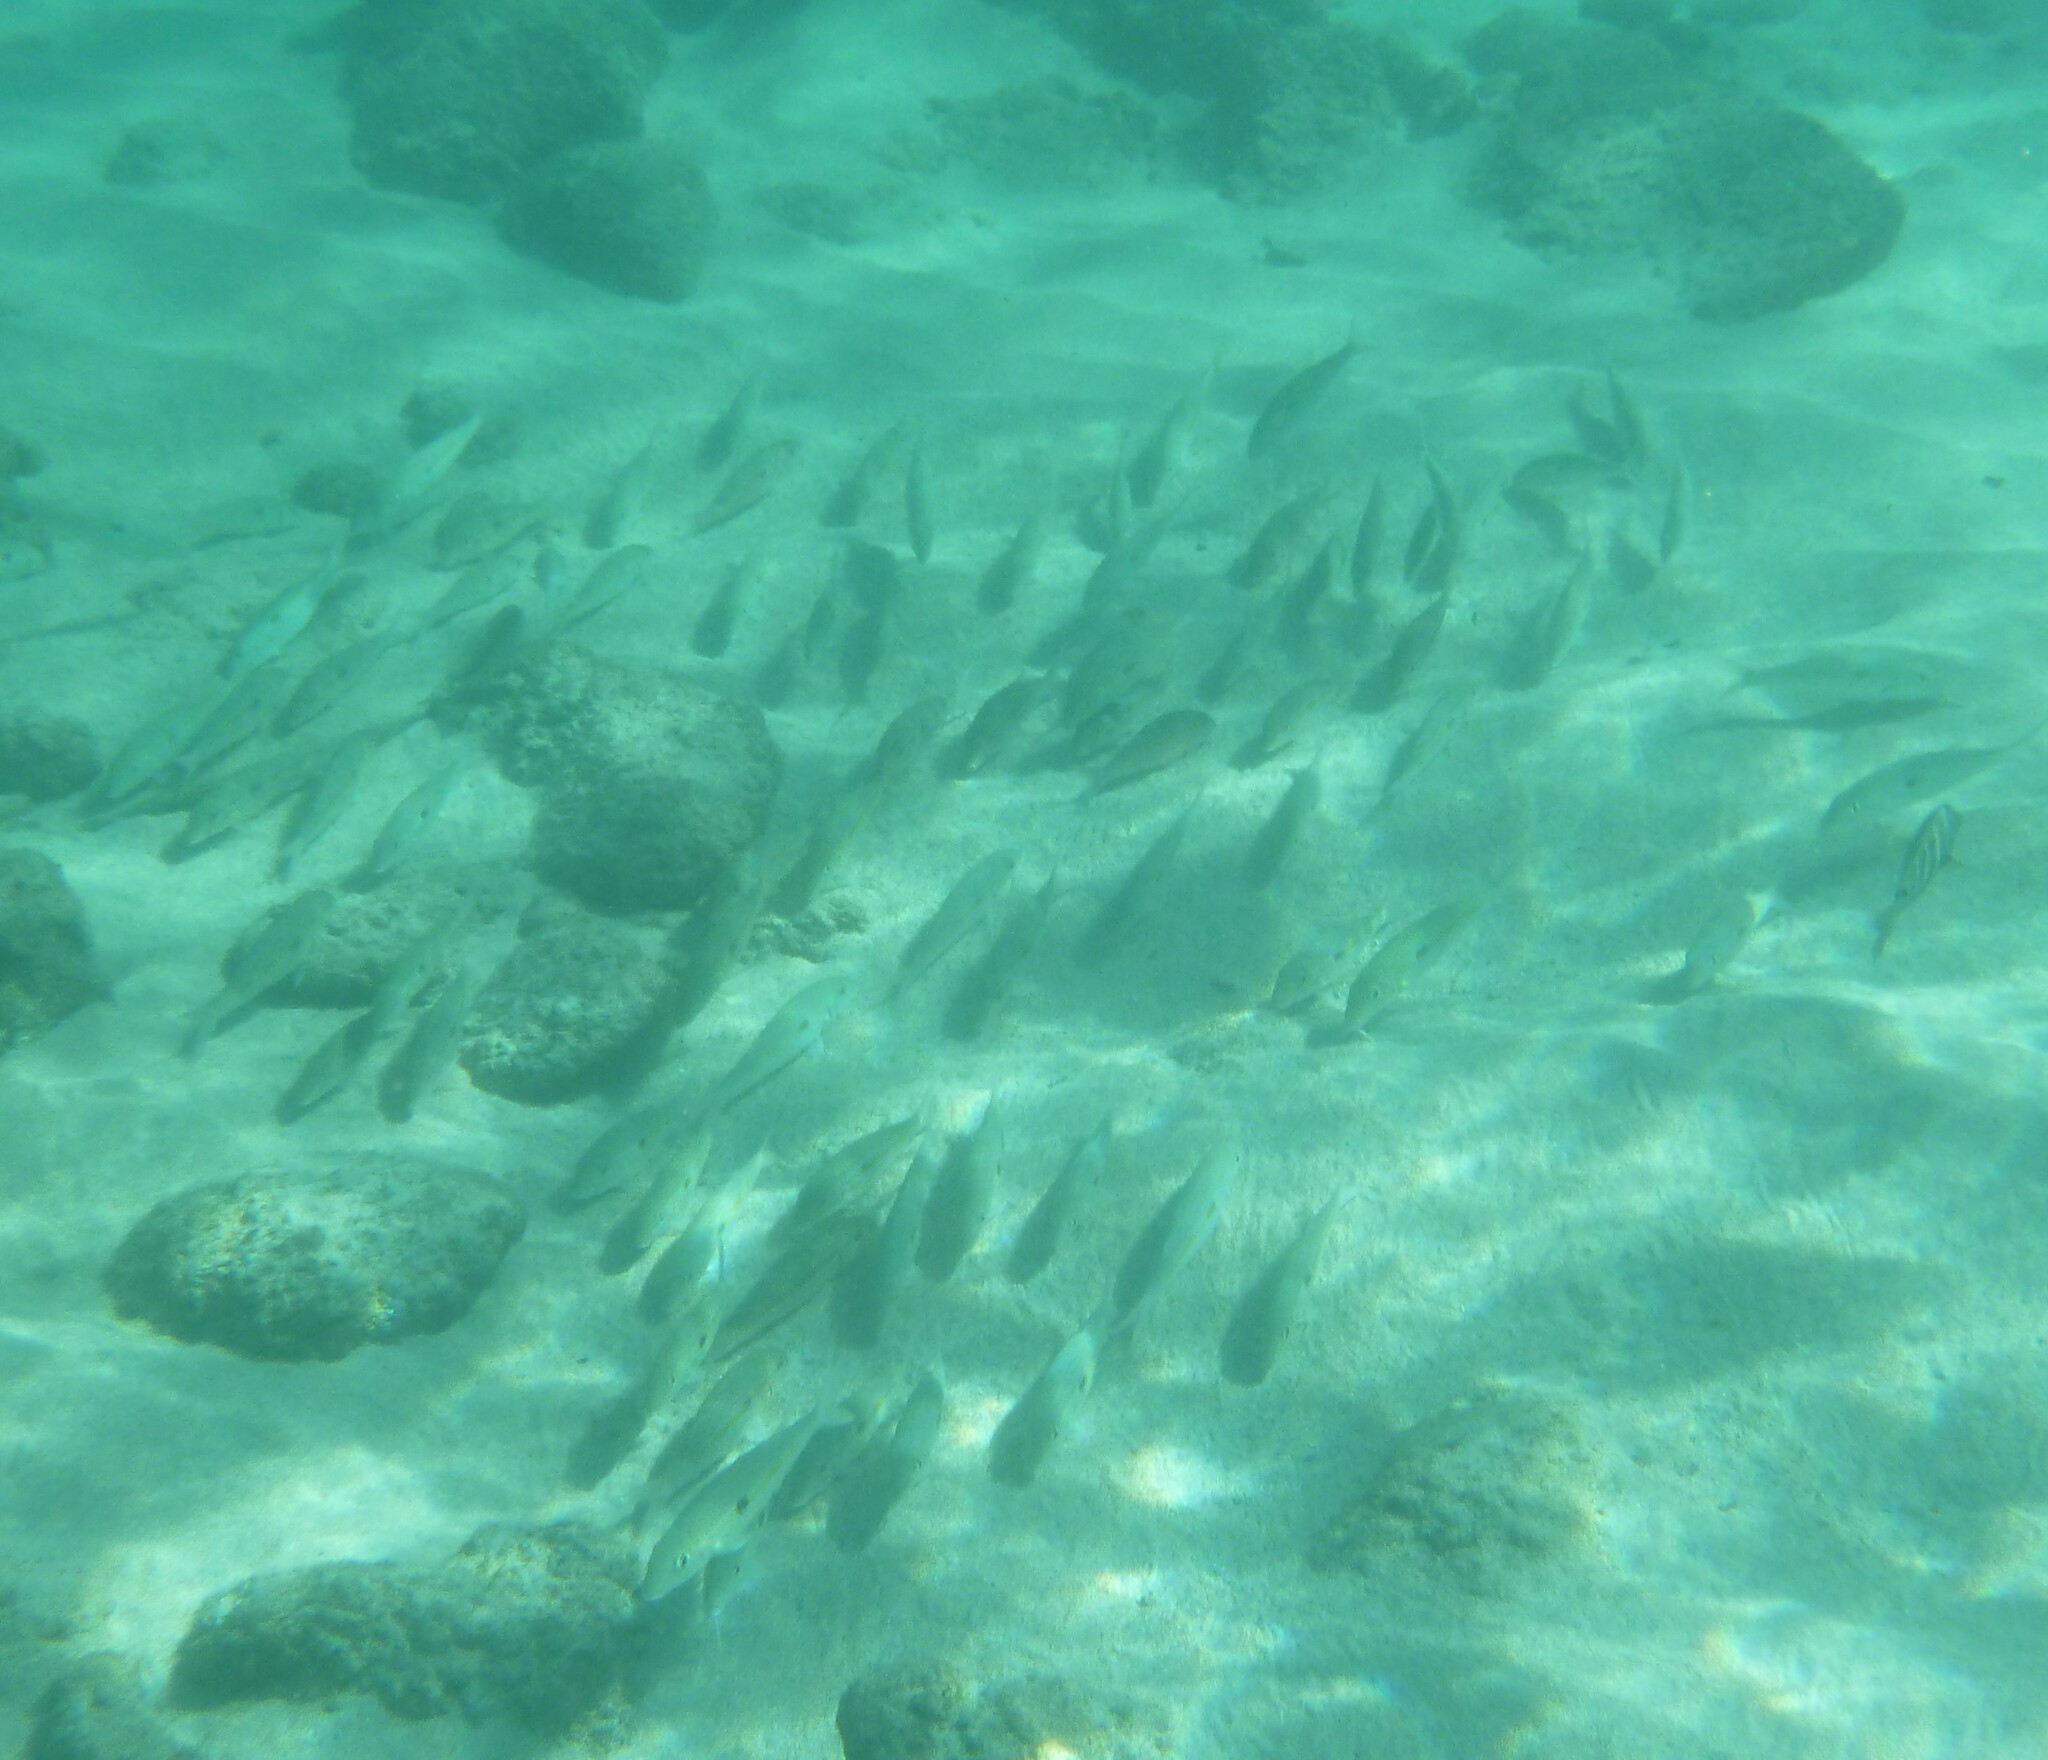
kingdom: Animalia
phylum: Chordata
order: Perciformes
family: Mullidae
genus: Mulloidichthys
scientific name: Mulloidichthys flavolineatus
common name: Yellowstripe goatfish
